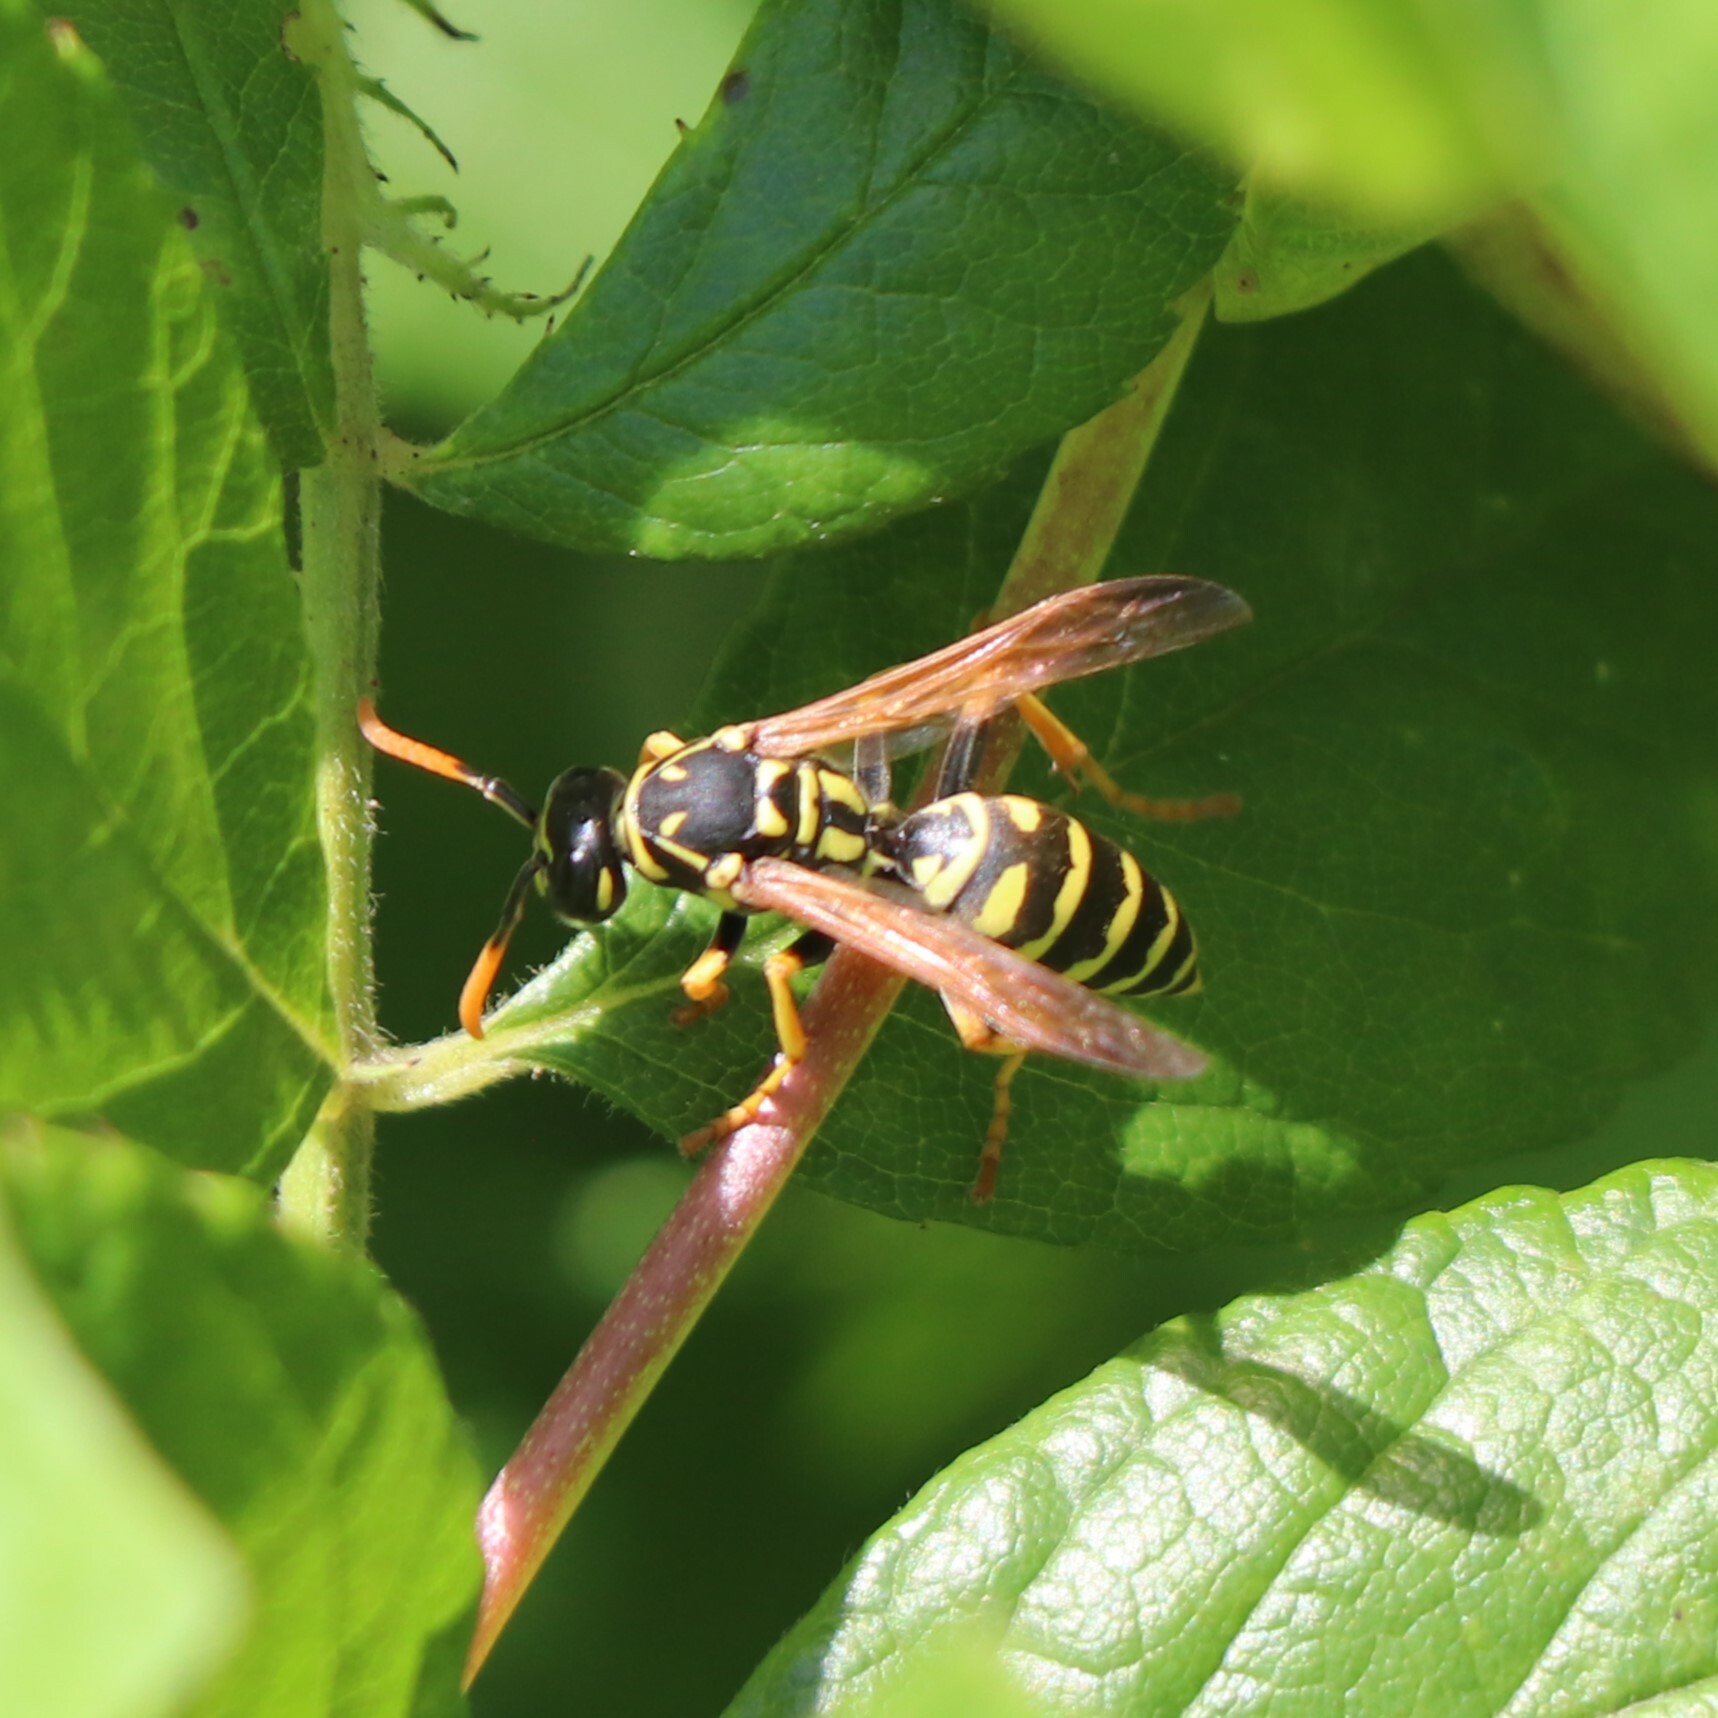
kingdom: Animalia
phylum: Arthropoda
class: Insecta
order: Hymenoptera
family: Eumenidae
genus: Polistes
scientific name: Polistes dominula
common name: Paper wasp
